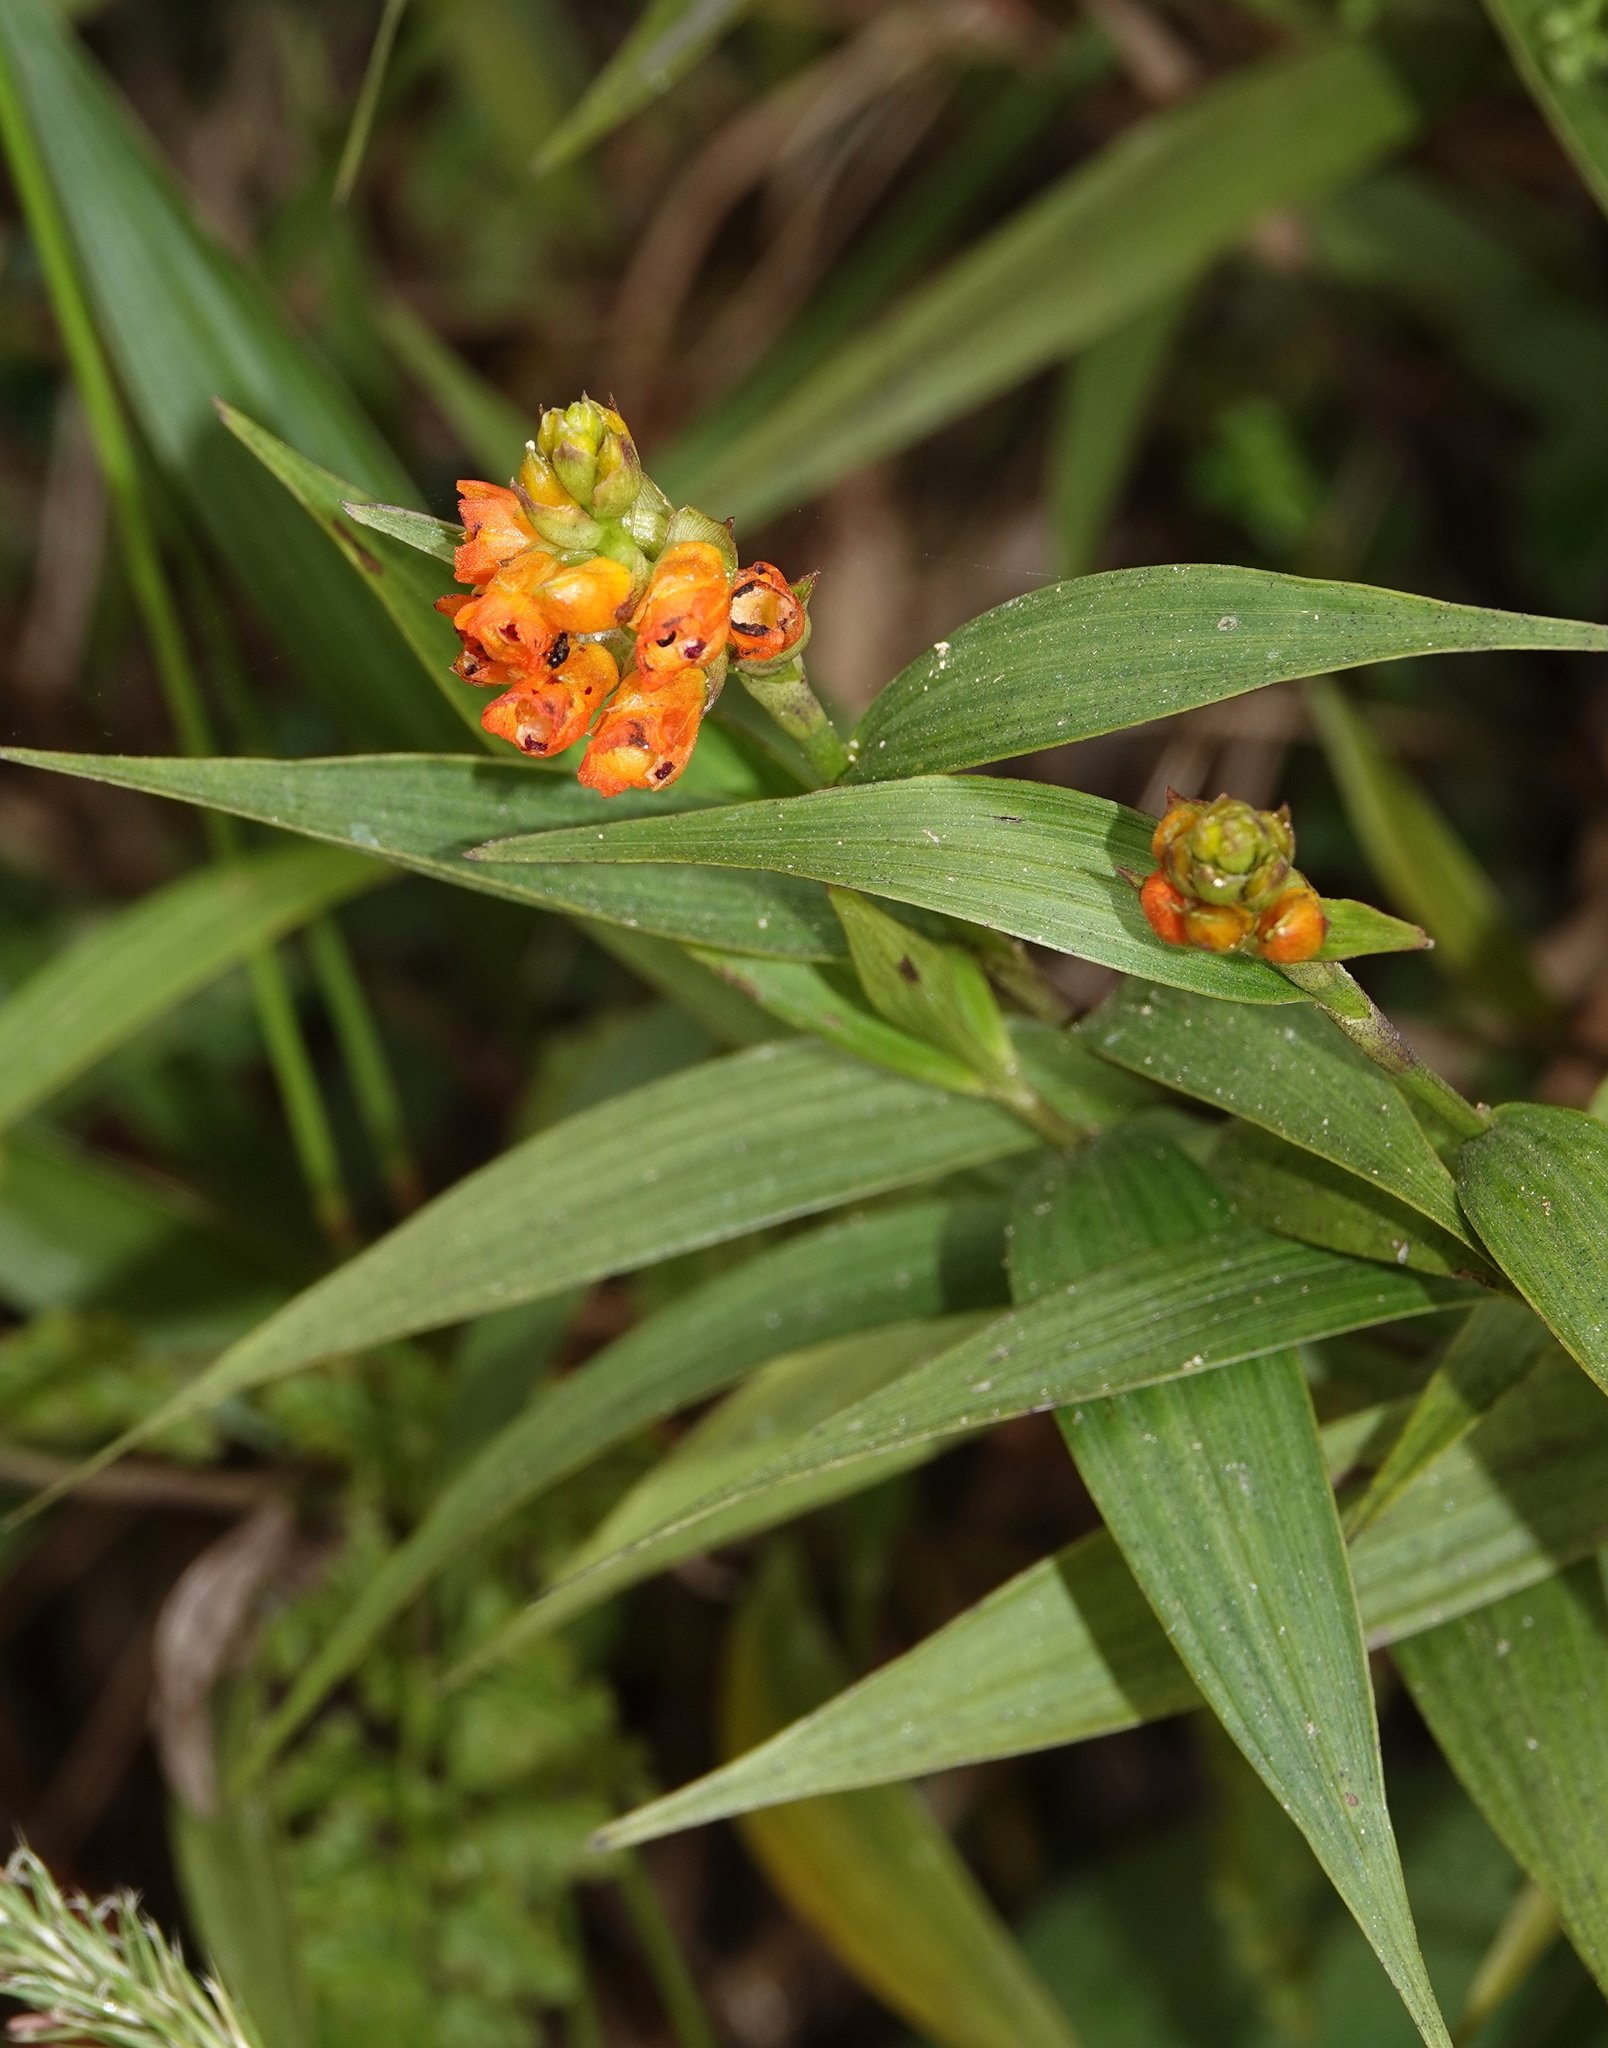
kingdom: Plantae
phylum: Tracheophyta
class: Liliopsida
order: Asparagales
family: Orchidaceae
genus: Elleanthus
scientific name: Elleanthus aurantiacus
